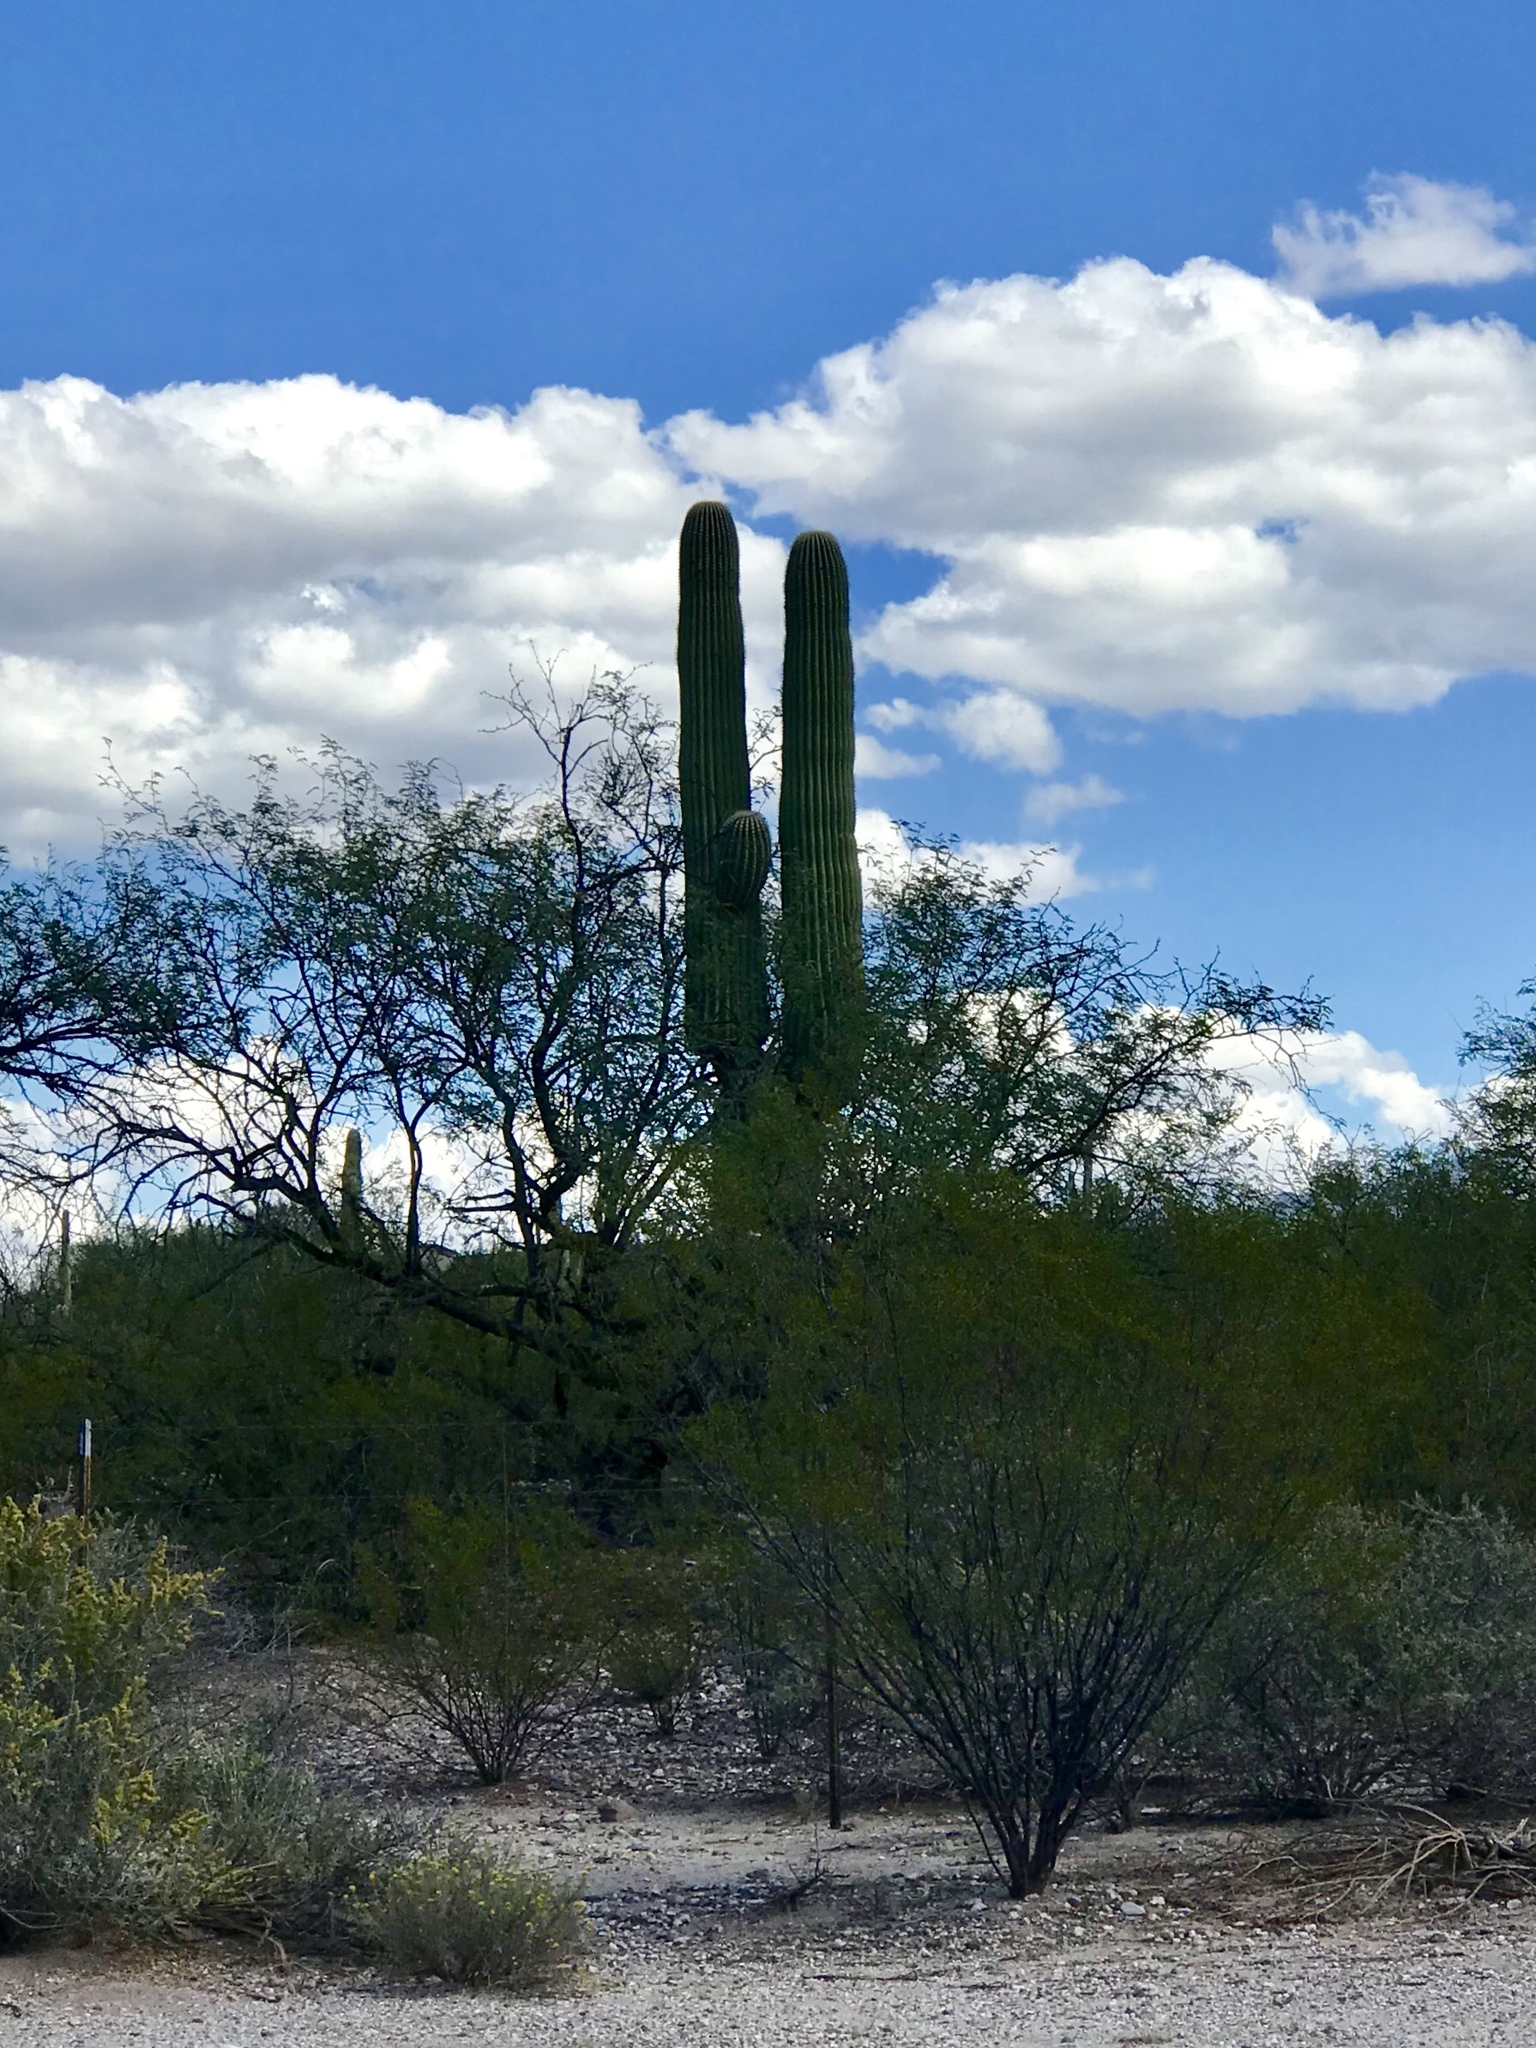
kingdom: Plantae
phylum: Tracheophyta
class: Magnoliopsida
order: Caryophyllales
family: Cactaceae
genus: Carnegiea
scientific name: Carnegiea gigantea
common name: Saguaro
